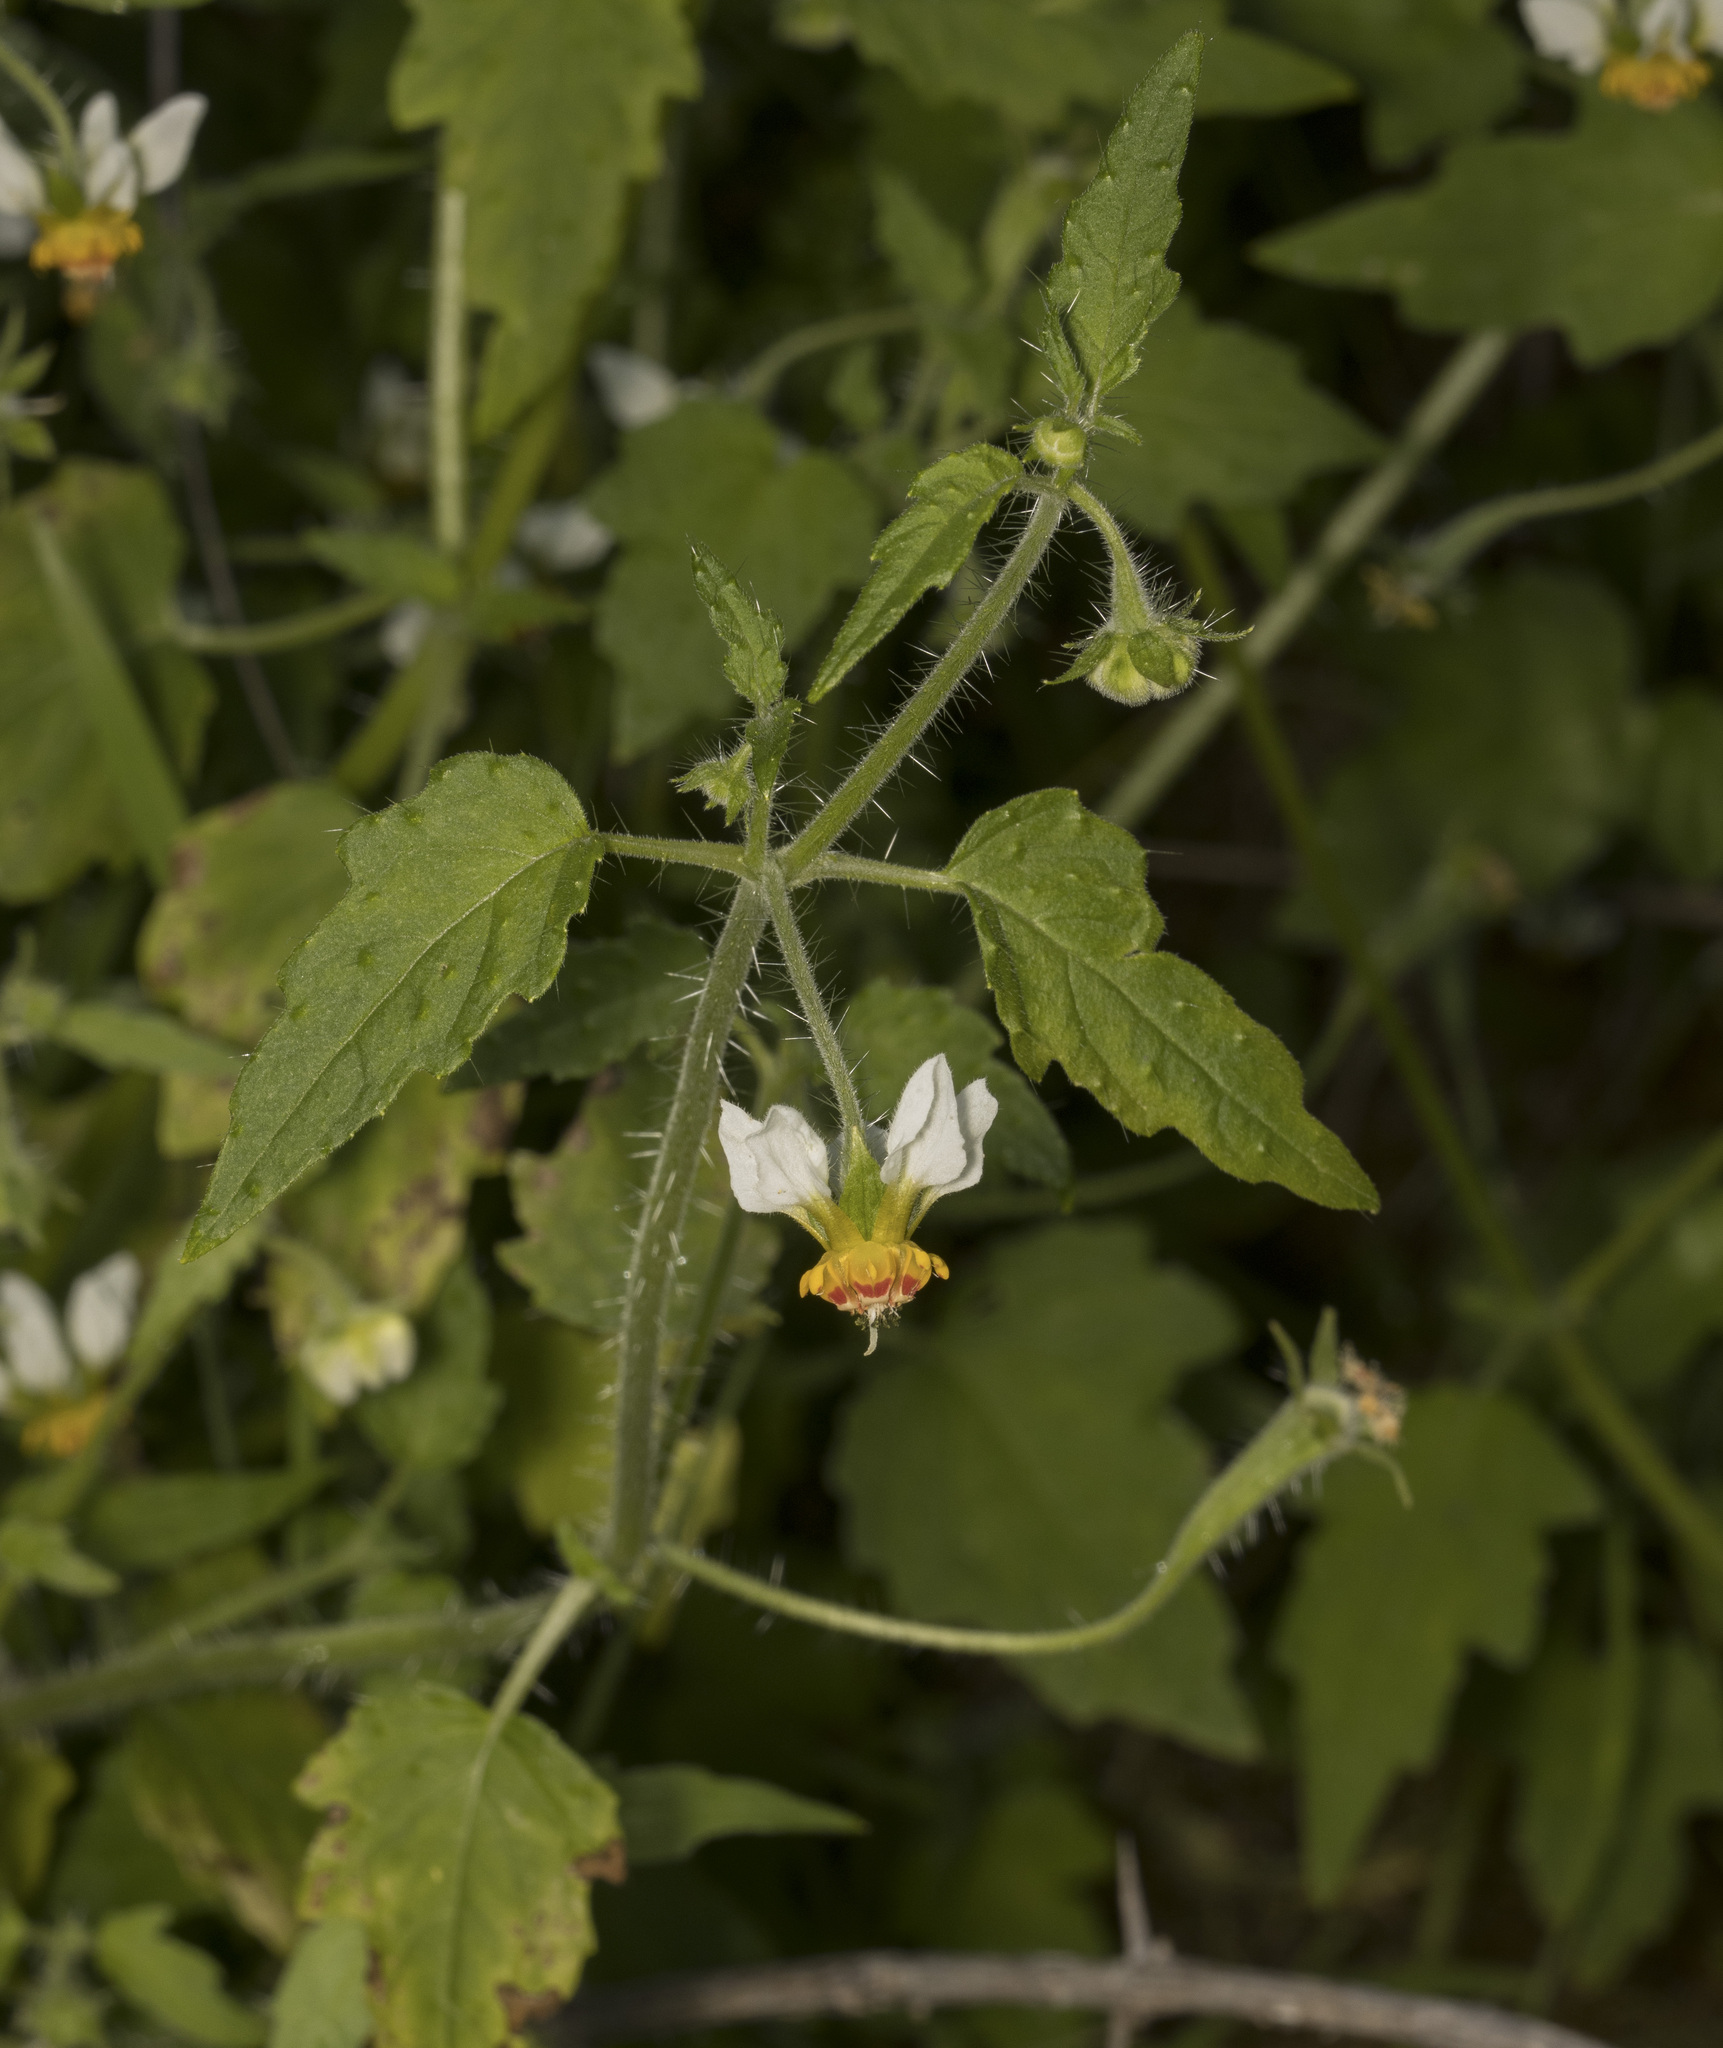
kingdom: Plantae
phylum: Tracheophyta
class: Magnoliopsida
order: Cornales
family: Loasaceae
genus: Loasa
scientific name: Loasa triloba
